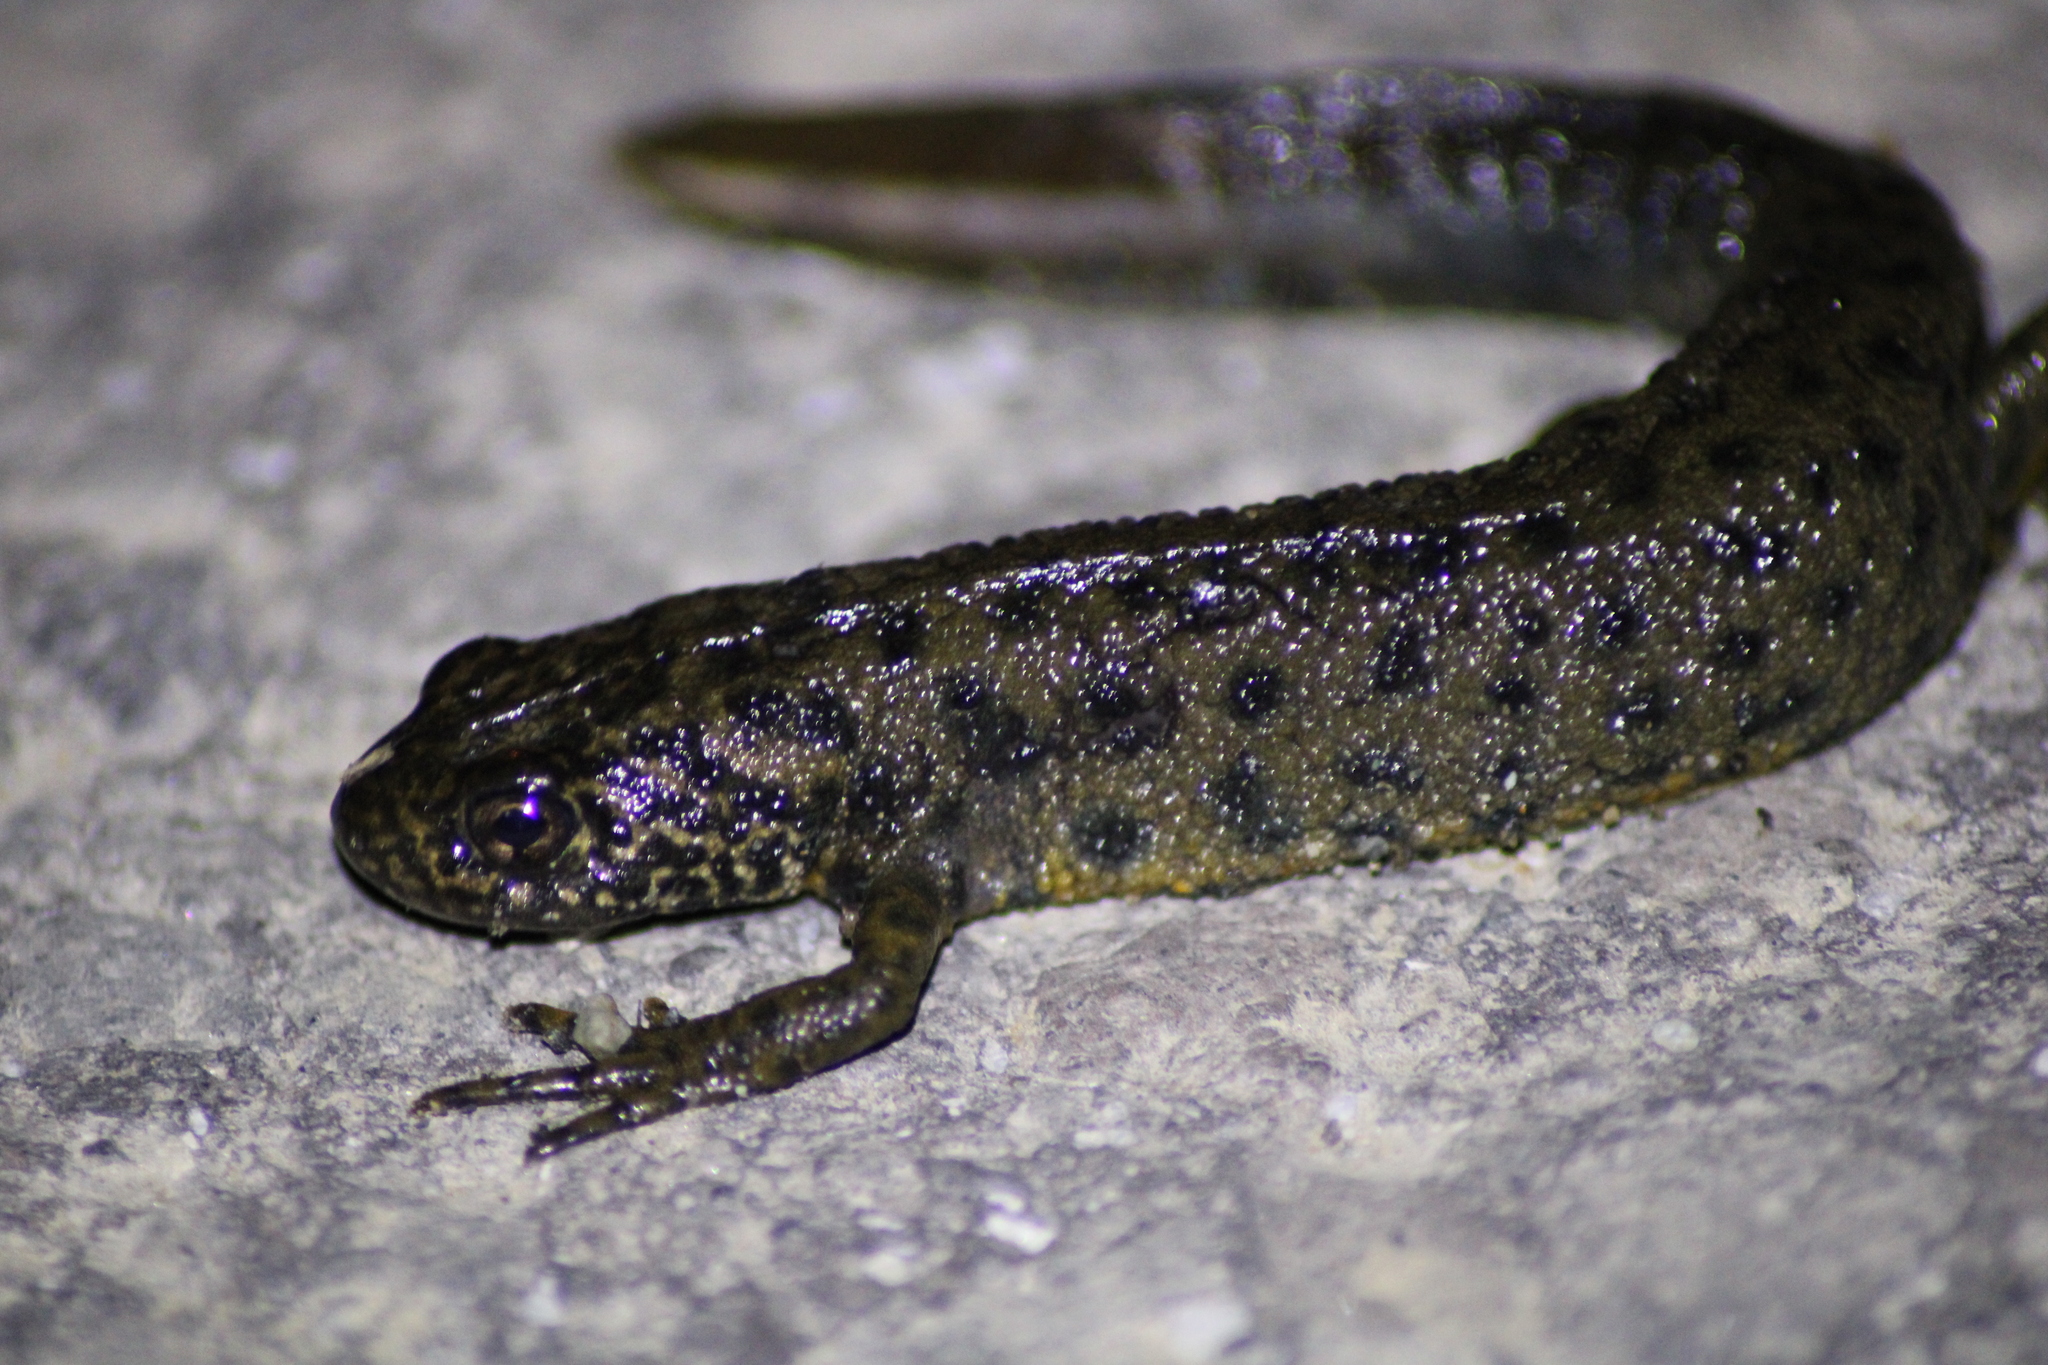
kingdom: Animalia
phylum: Chordata
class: Amphibia
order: Caudata
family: Salamandridae
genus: Triturus
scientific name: Triturus carnifex
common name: Italian crested newt
